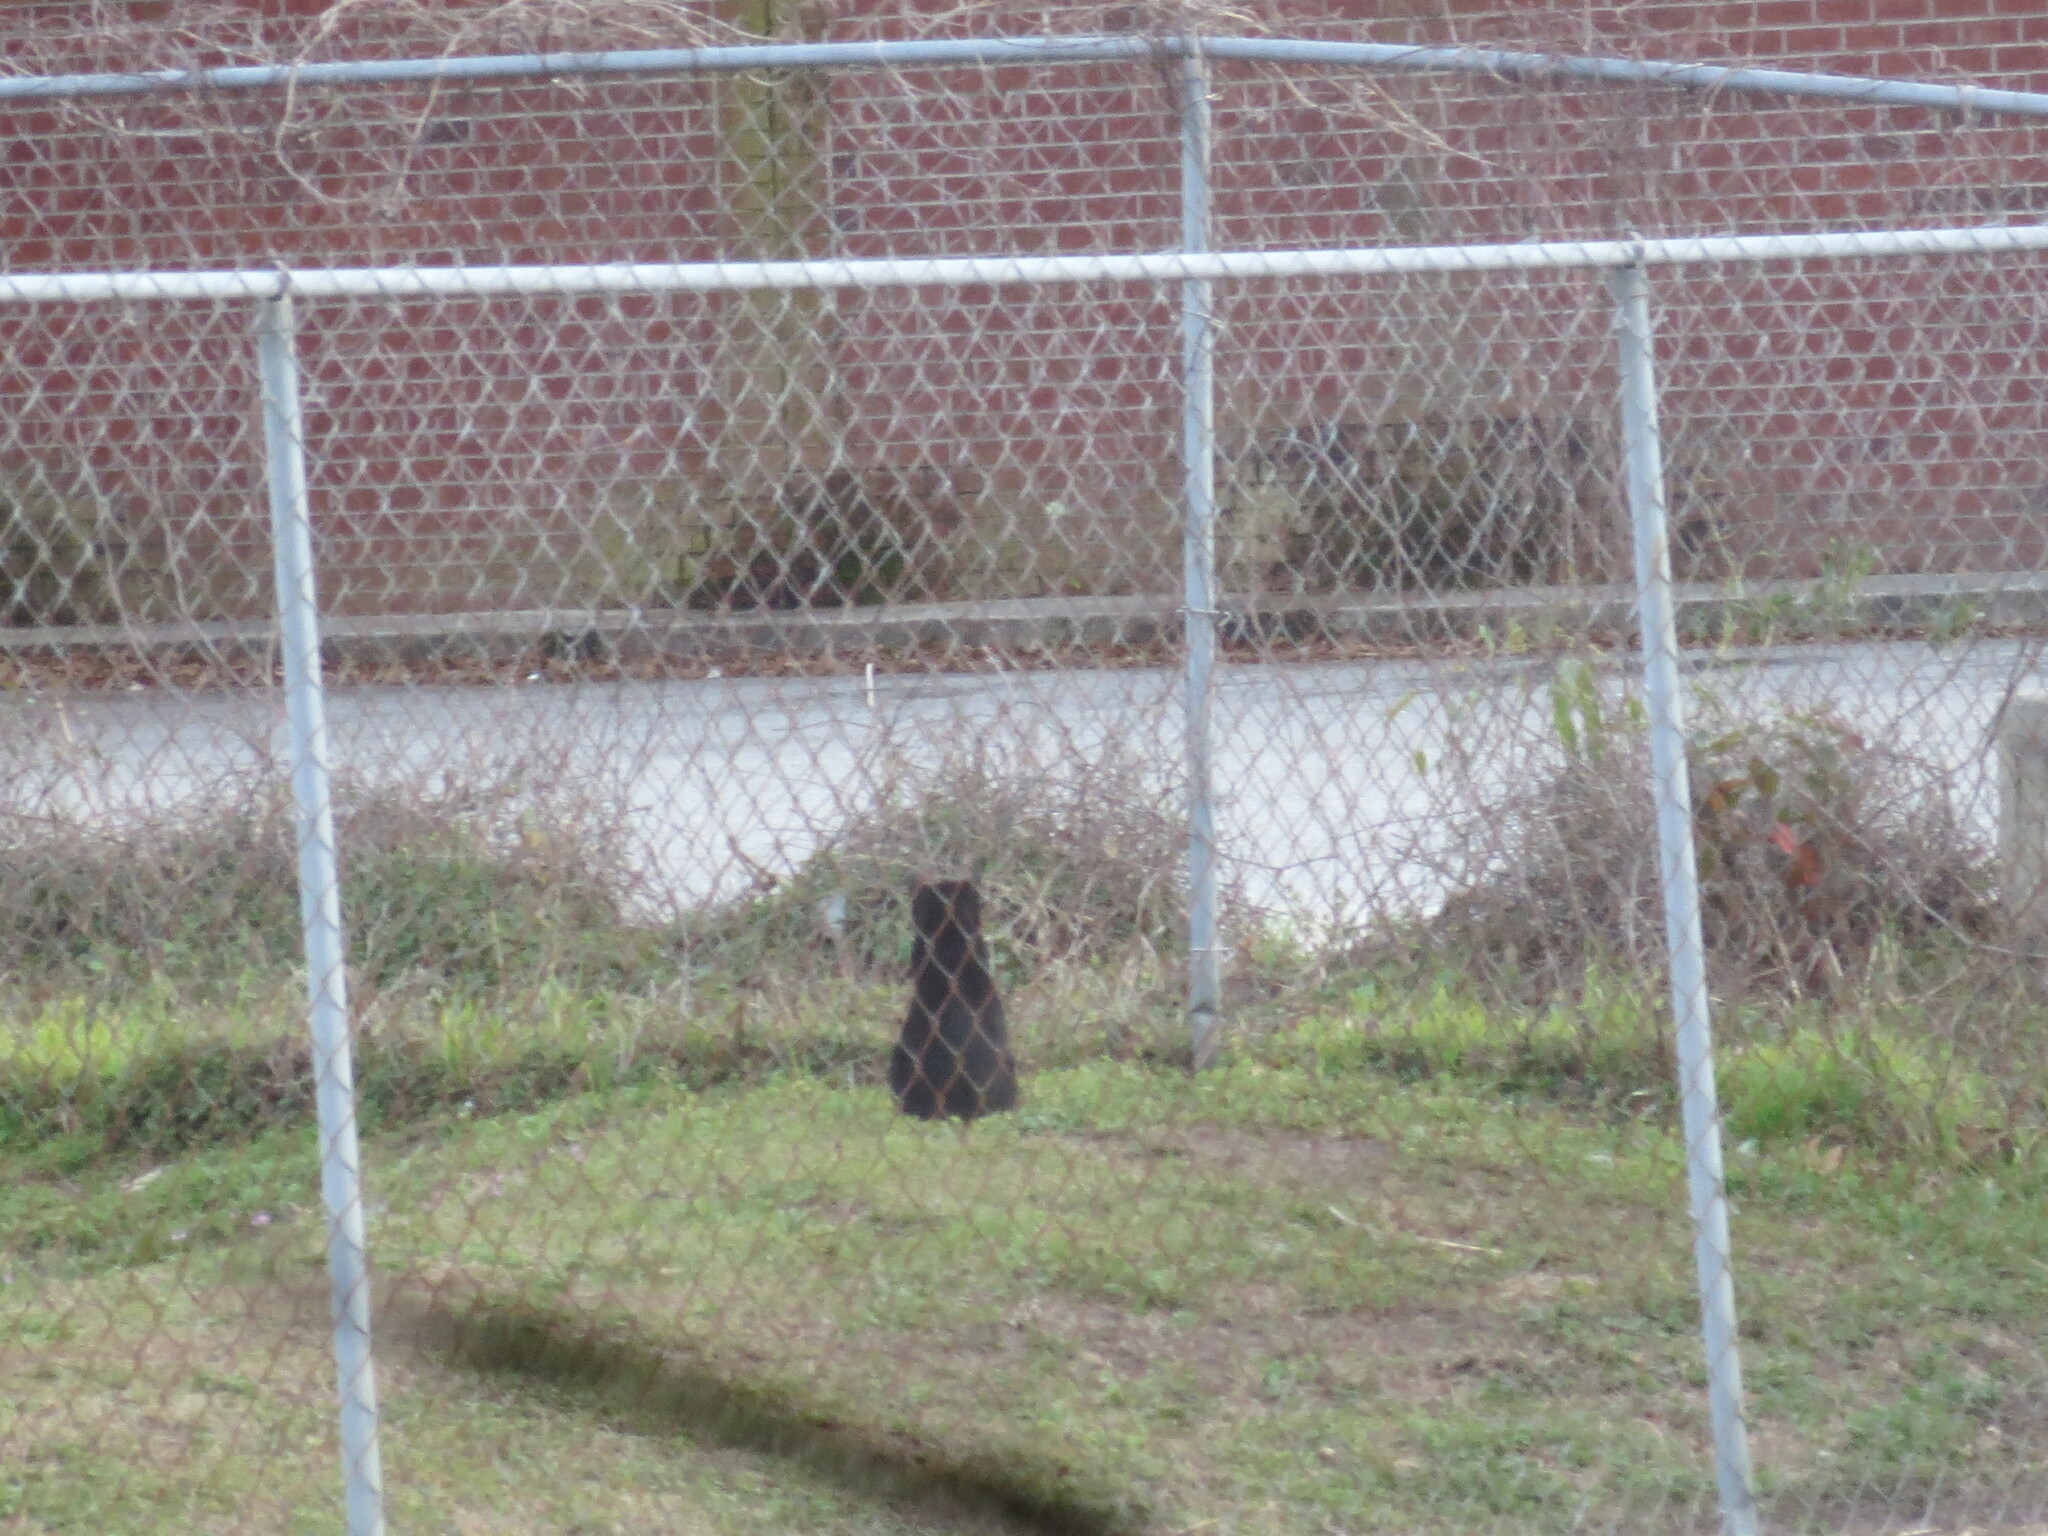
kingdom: Animalia
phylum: Chordata
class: Mammalia
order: Carnivora
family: Felidae
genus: Felis
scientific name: Felis catus
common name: Domestic cat
